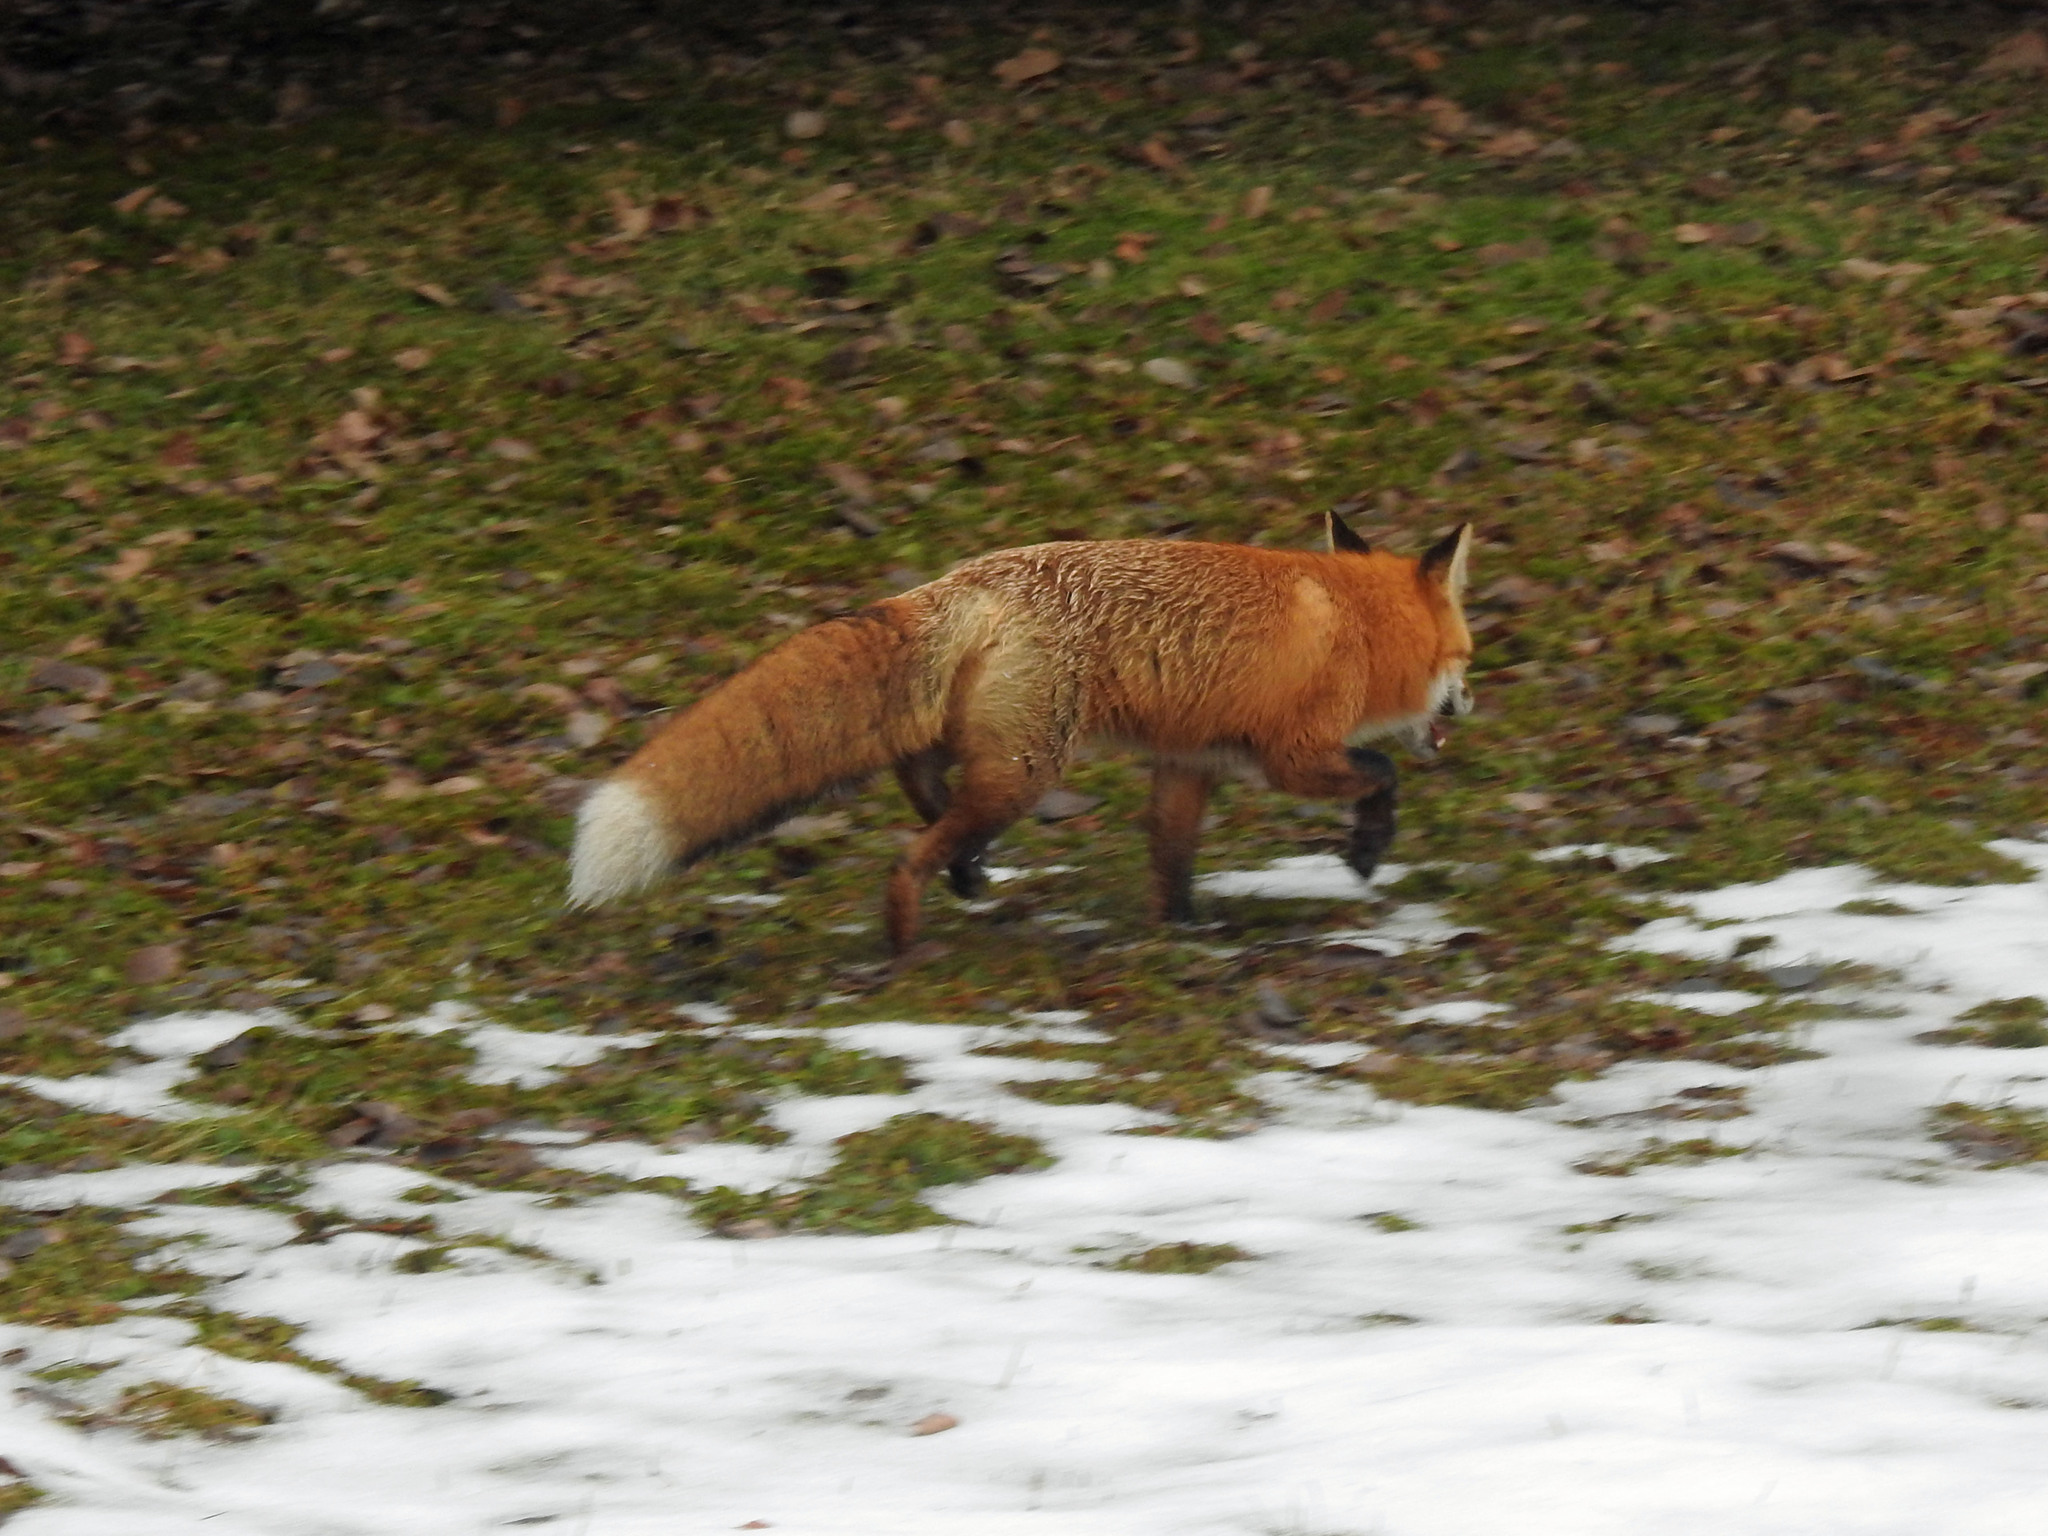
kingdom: Animalia
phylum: Chordata
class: Mammalia
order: Carnivora
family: Canidae
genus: Vulpes
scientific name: Vulpes vulpes
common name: Red fox
